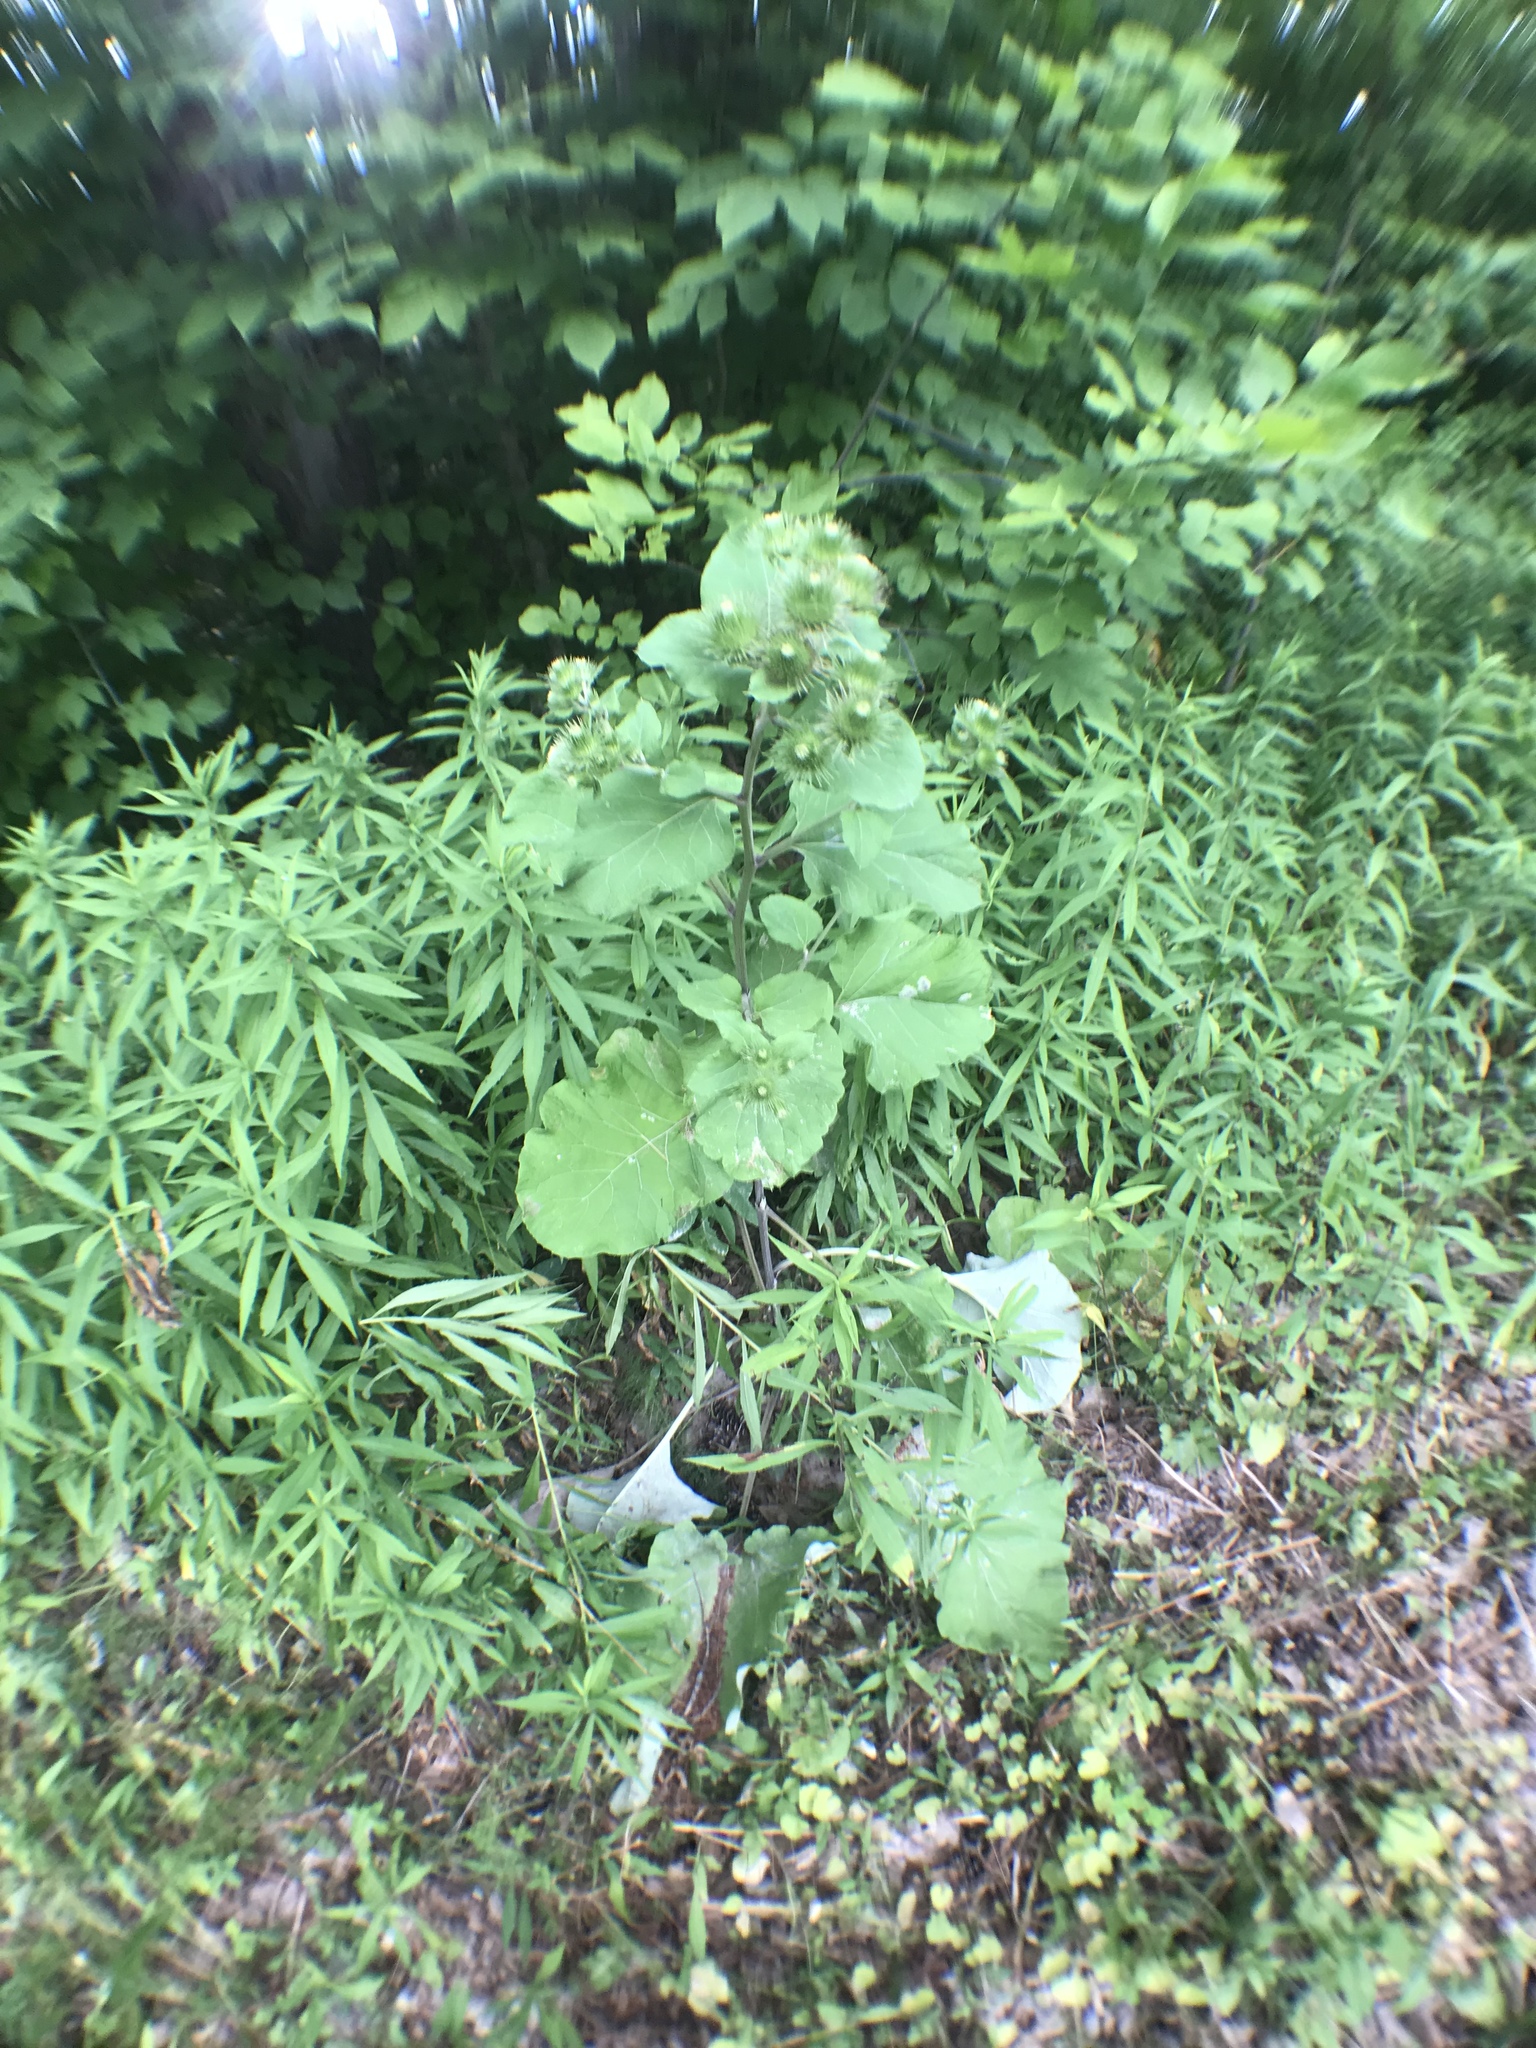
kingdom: Plantae
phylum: Tracheophyta
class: Magnoliopsida
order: Asterales
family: Asteraceae
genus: Arctium
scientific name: Arctium lappa
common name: Greater burdock
